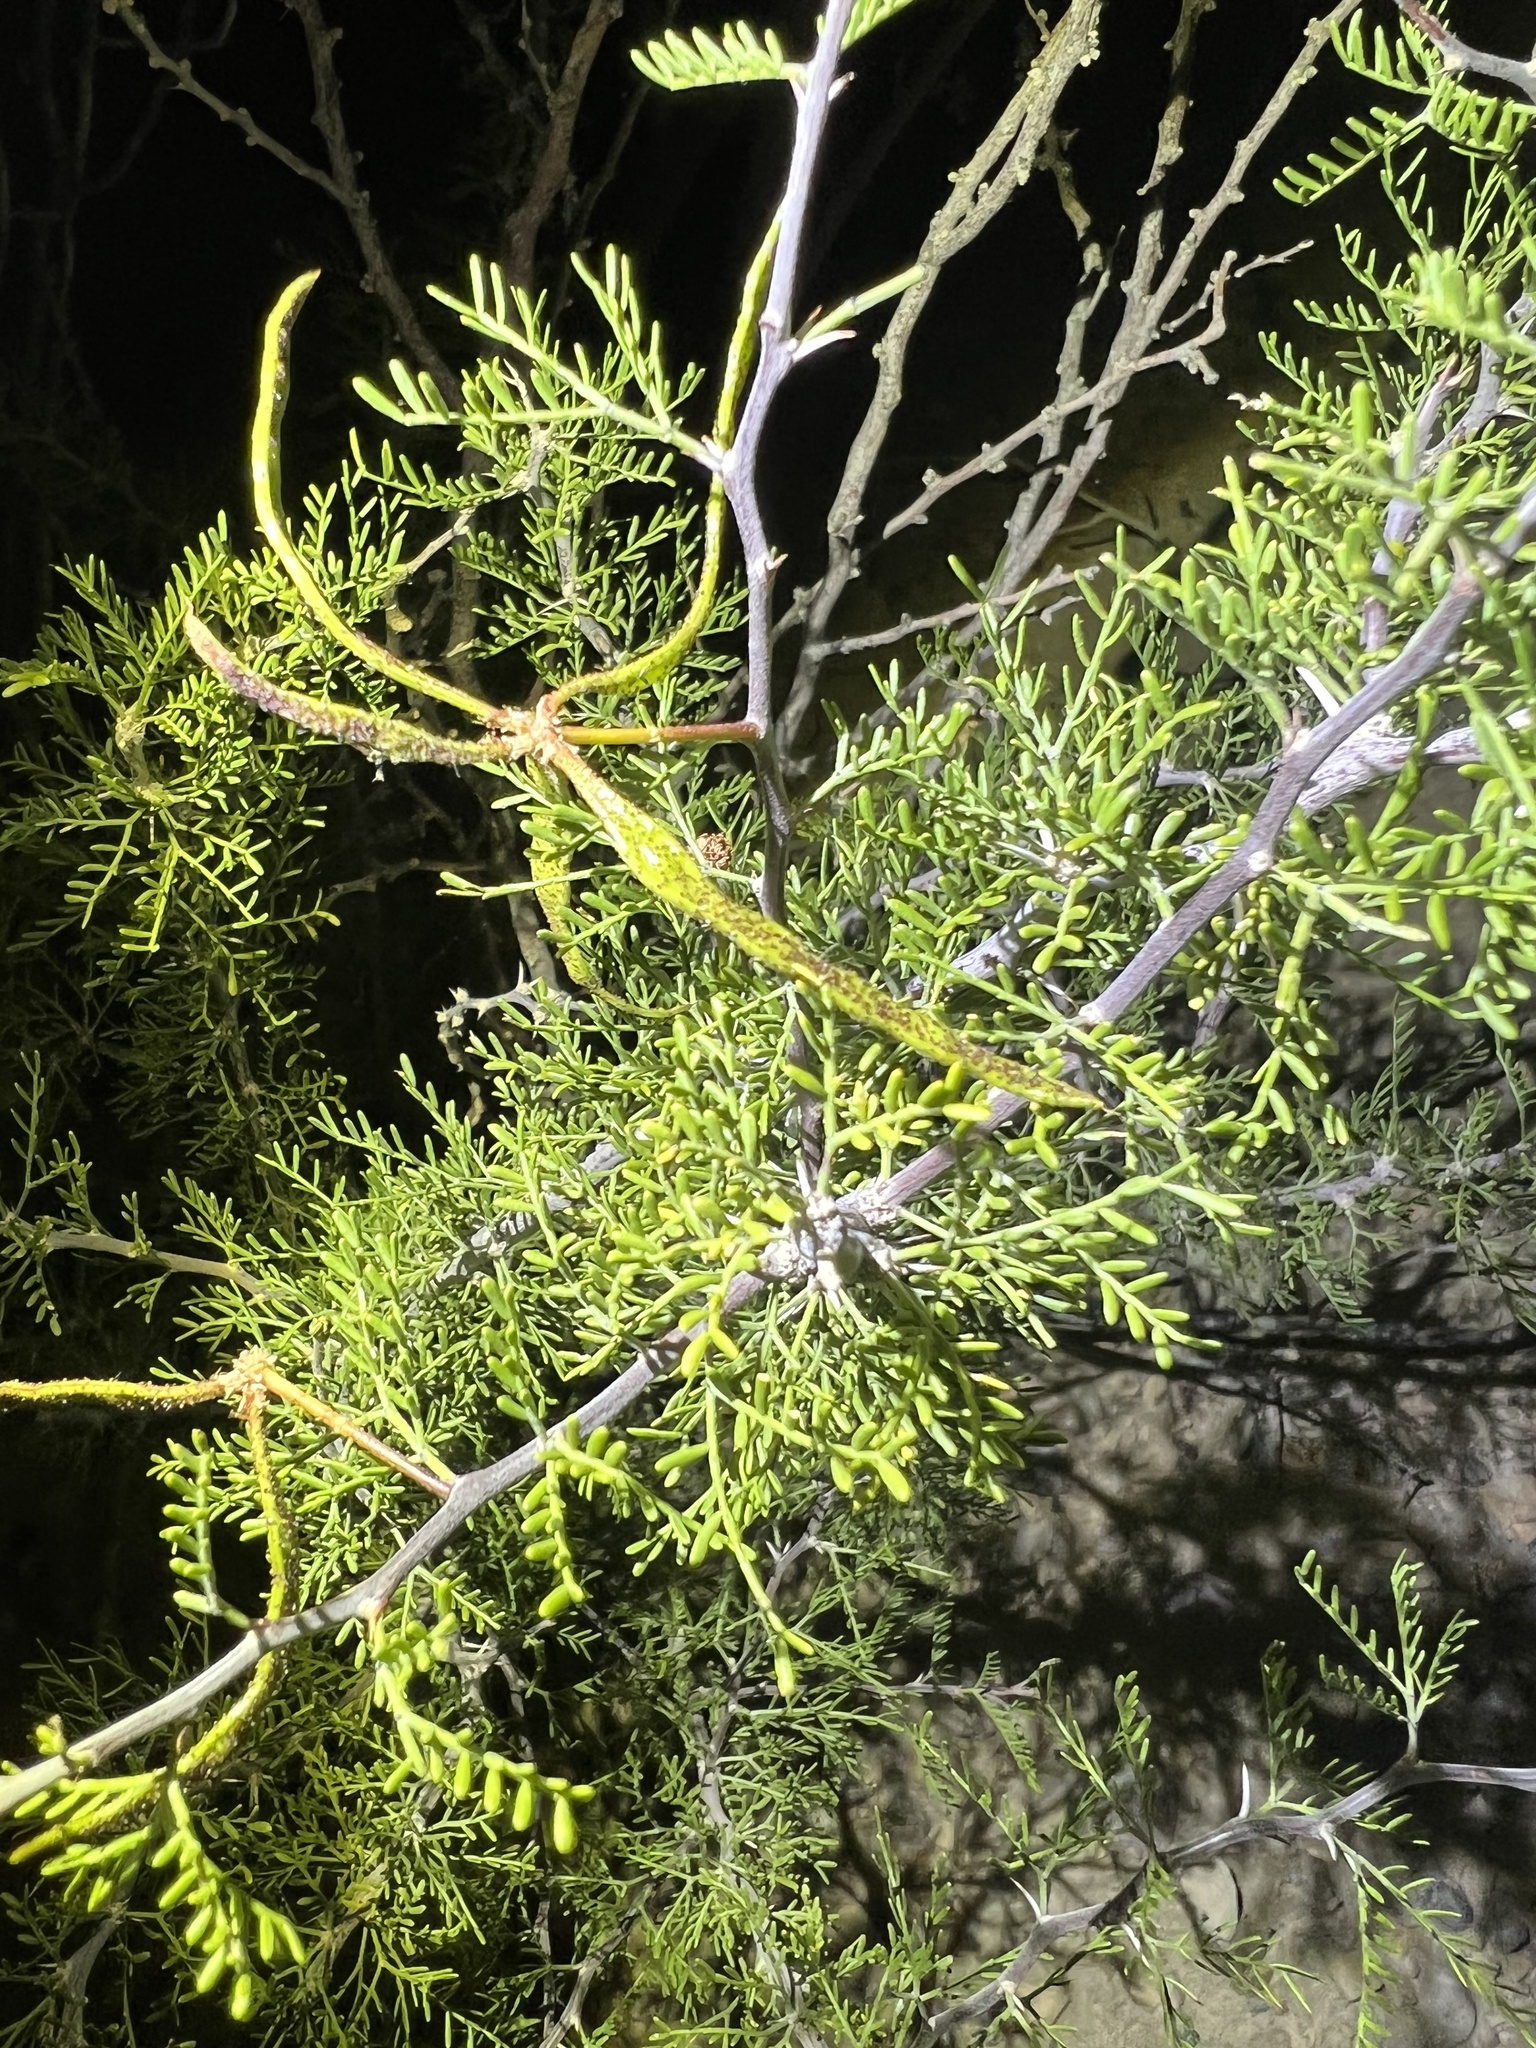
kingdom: Plantae
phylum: Tracheophyta
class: Magnoliopsida
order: Fabales
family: Fabaceae
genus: Vachellia
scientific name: Vachellia schottii
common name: Schott acacia
